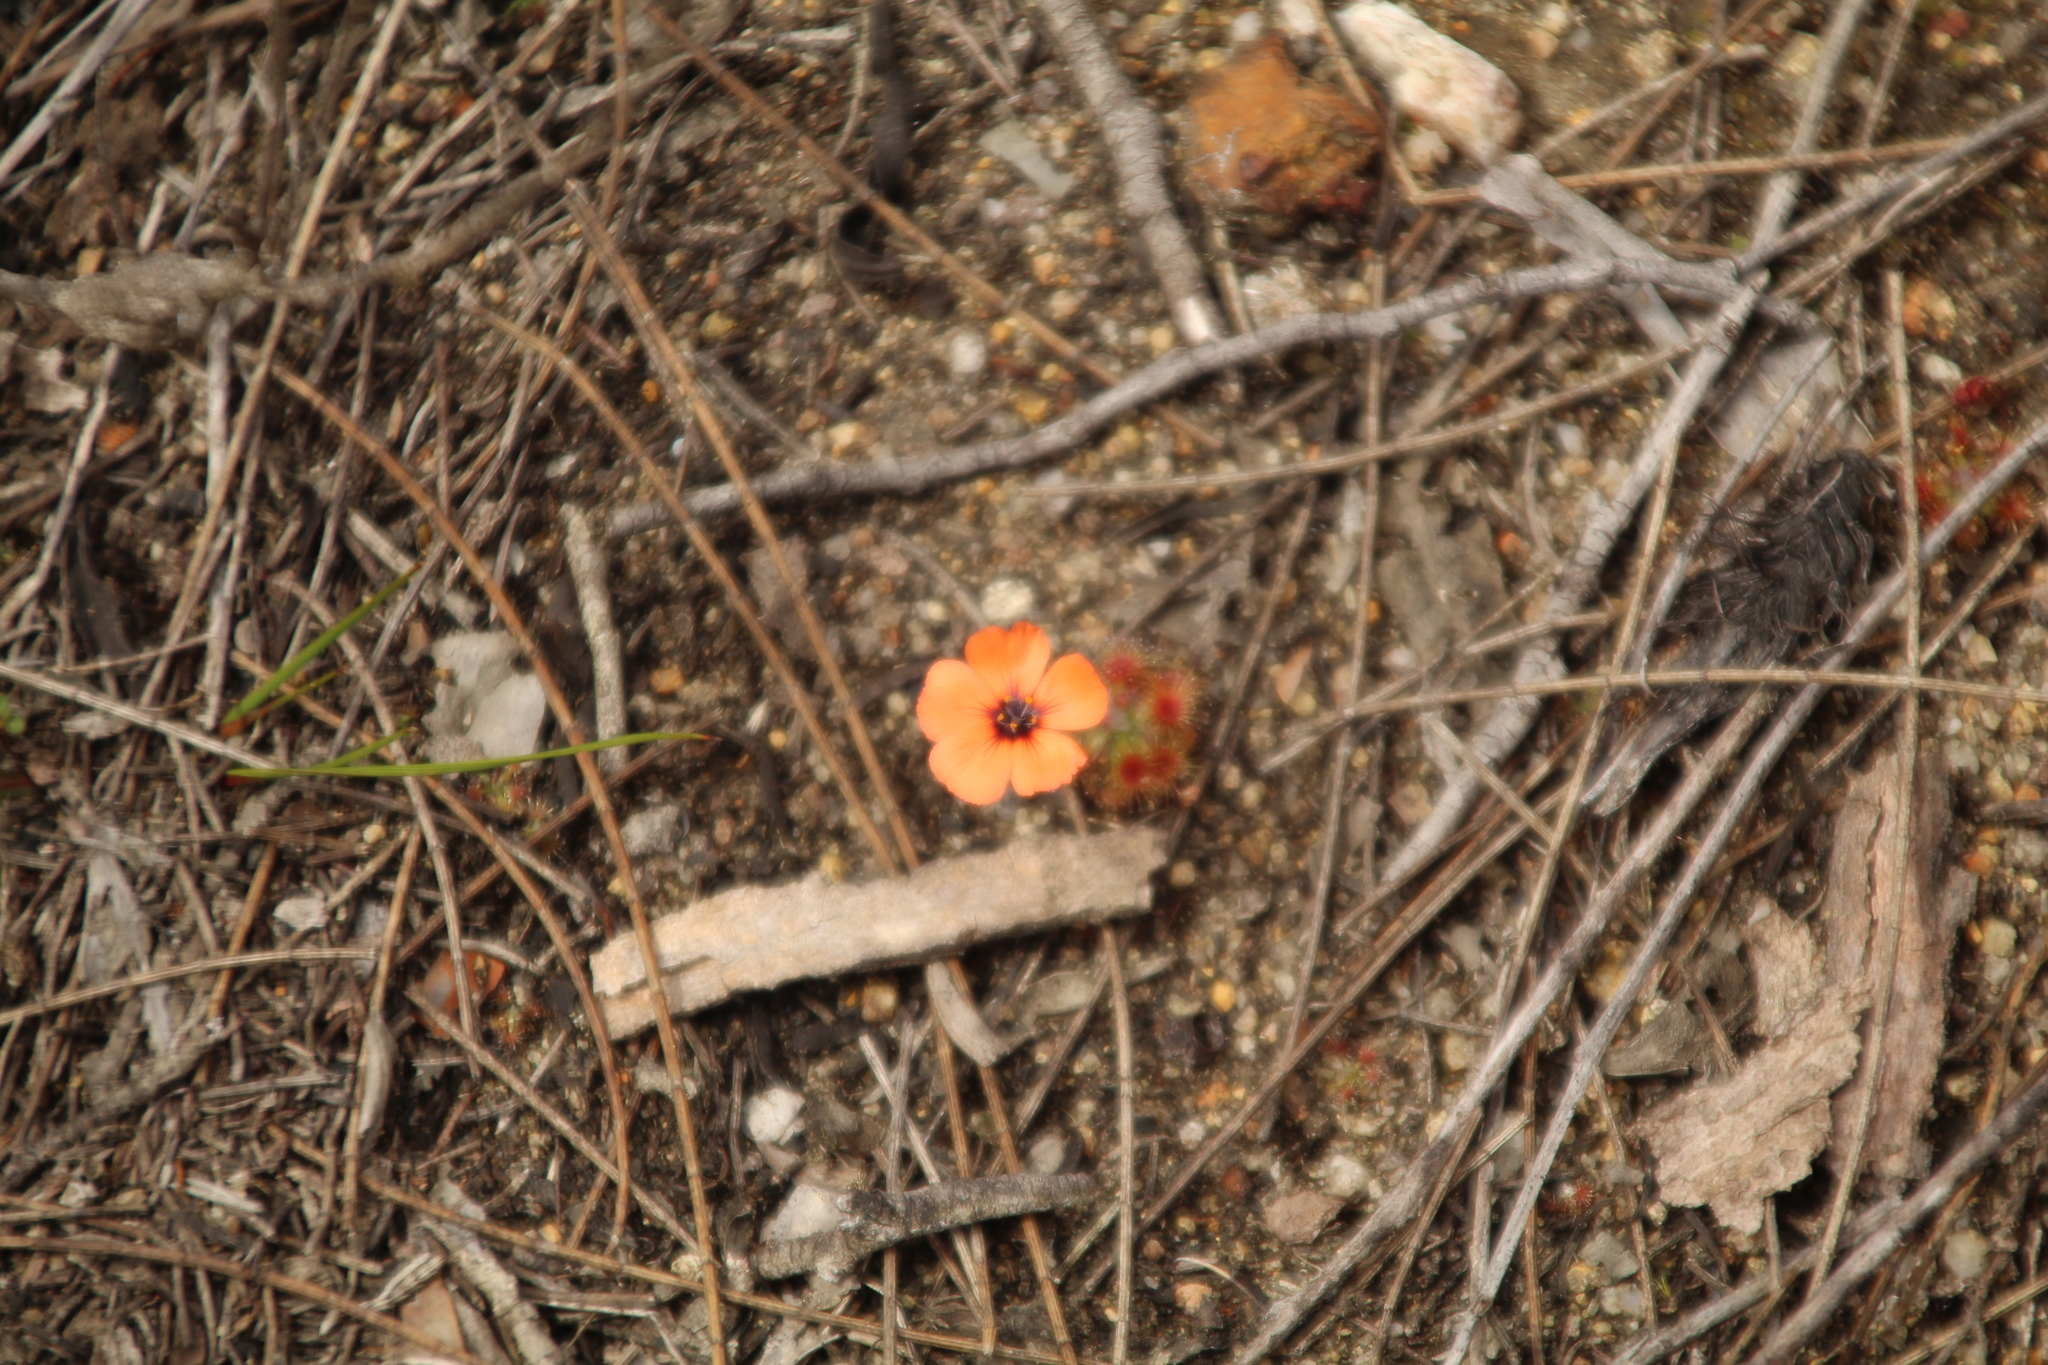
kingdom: Plantae
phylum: Tracheophyta
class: Magnoliopsida
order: Caryophyllales
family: Droseraceae
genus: Drosera
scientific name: Drosera platystigma
